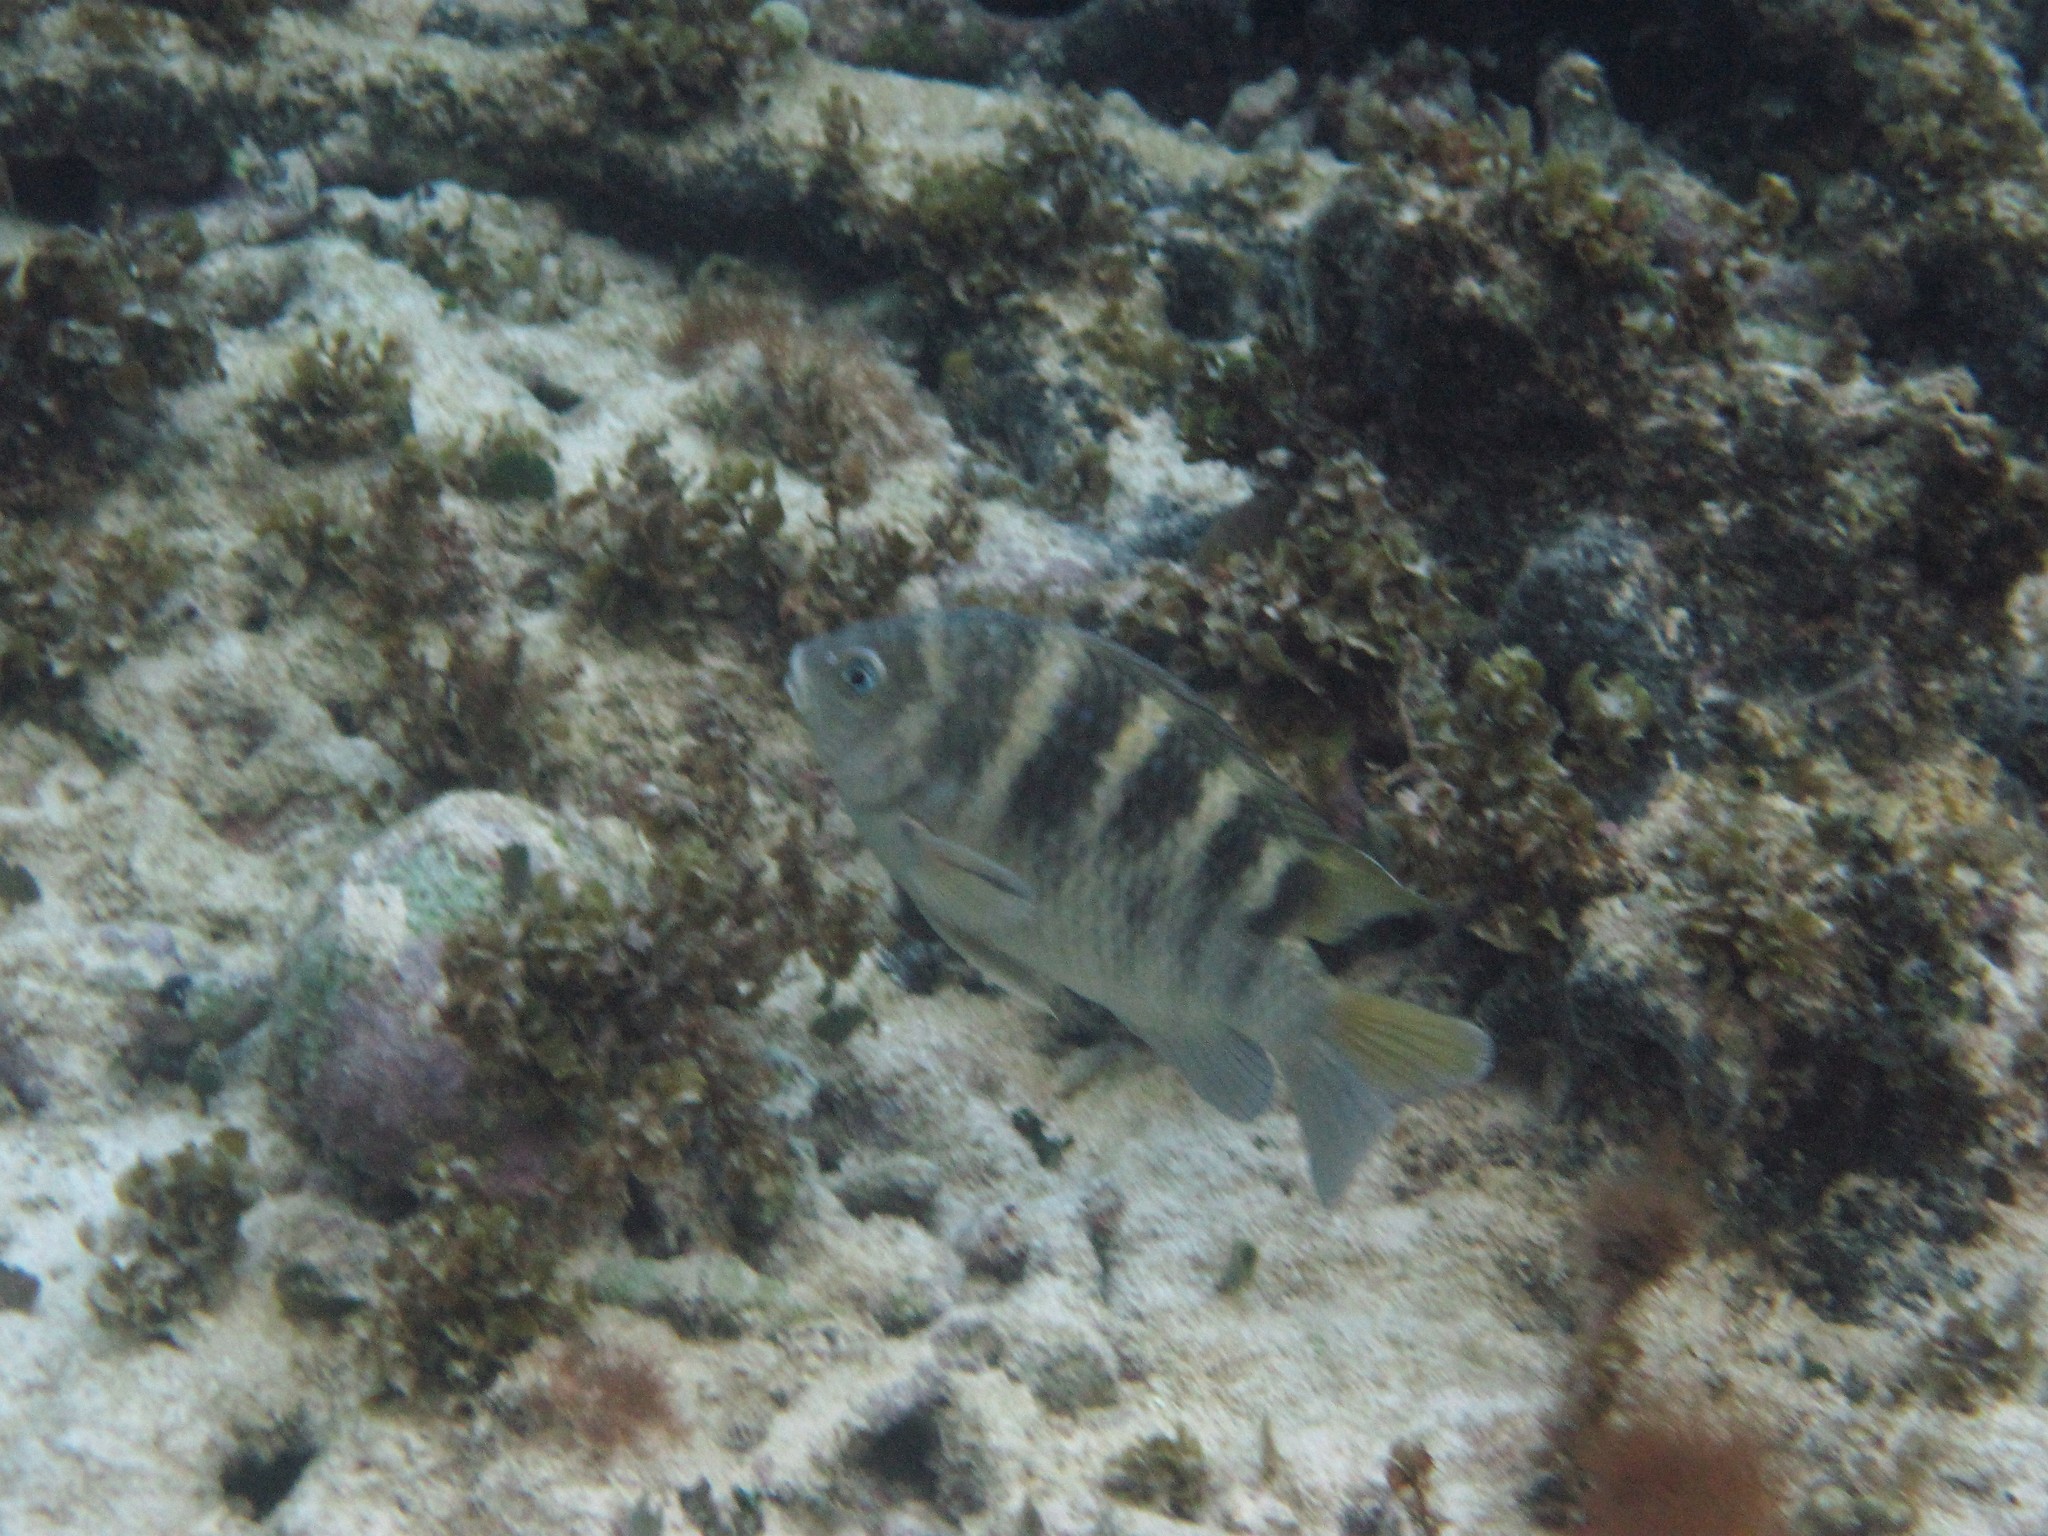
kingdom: Animalia
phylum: Chordata
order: Perciformes
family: Pomacentridae
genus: Abudefduf
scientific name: Abudefduf taurus
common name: Night sergeant
